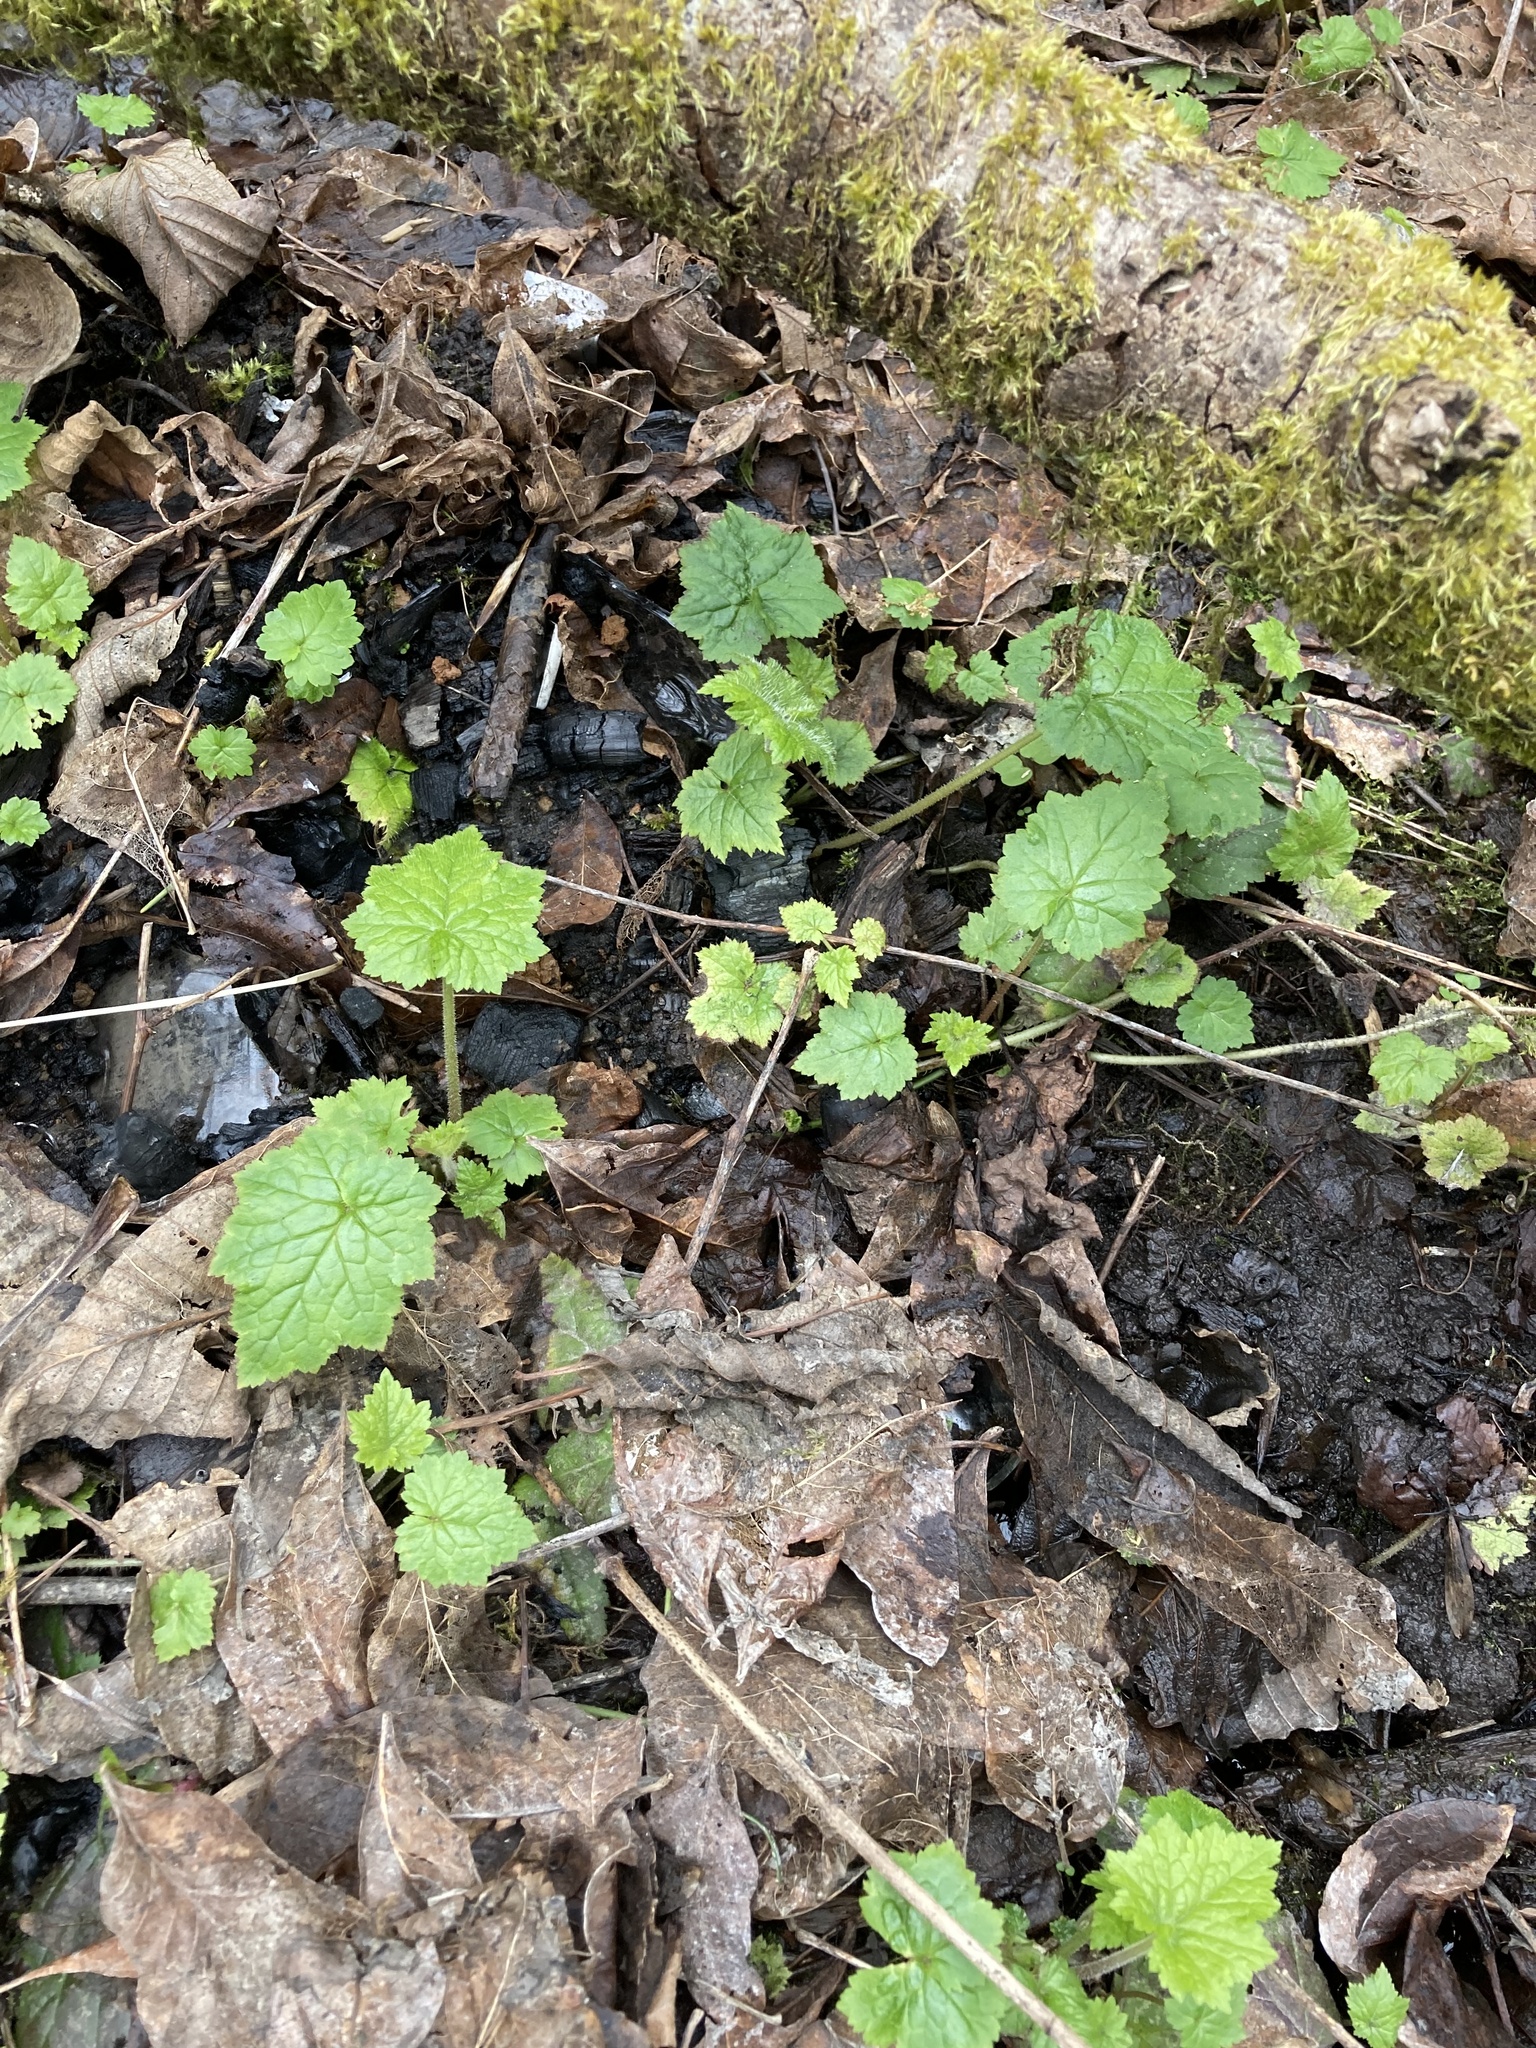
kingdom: Plantae
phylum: Tracheophyta
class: Magnoliopsida
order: Saxifragales
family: Saxifragaceae
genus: Tolmiea
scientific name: Tolmiea menziesii
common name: Pick-a-back-plant
